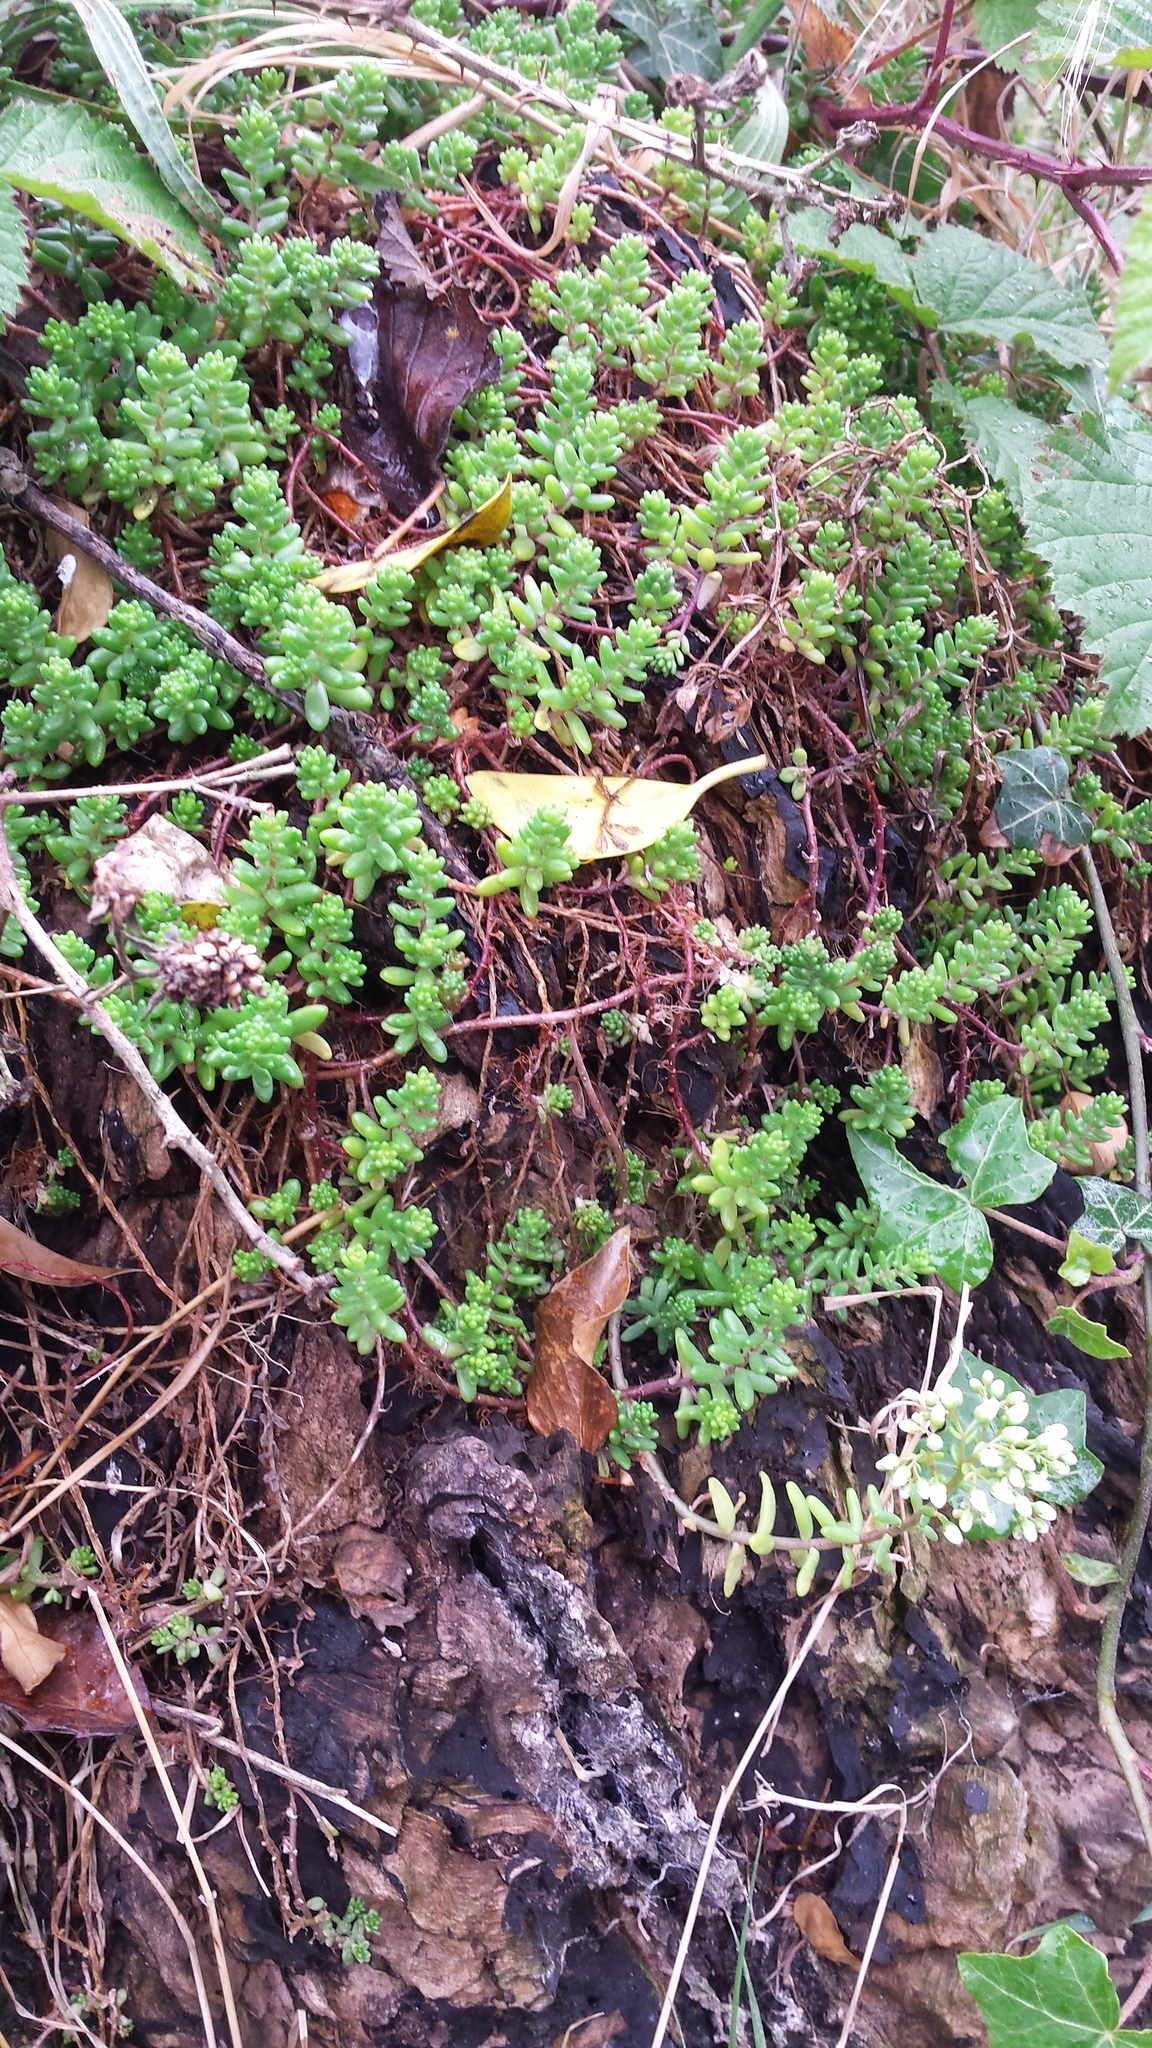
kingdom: Plantae
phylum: Tracheophyta
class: Magnoliopsida
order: Saxifragales
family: Crassulaceae
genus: Sedum
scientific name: Sedum album
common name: White stonecrop
